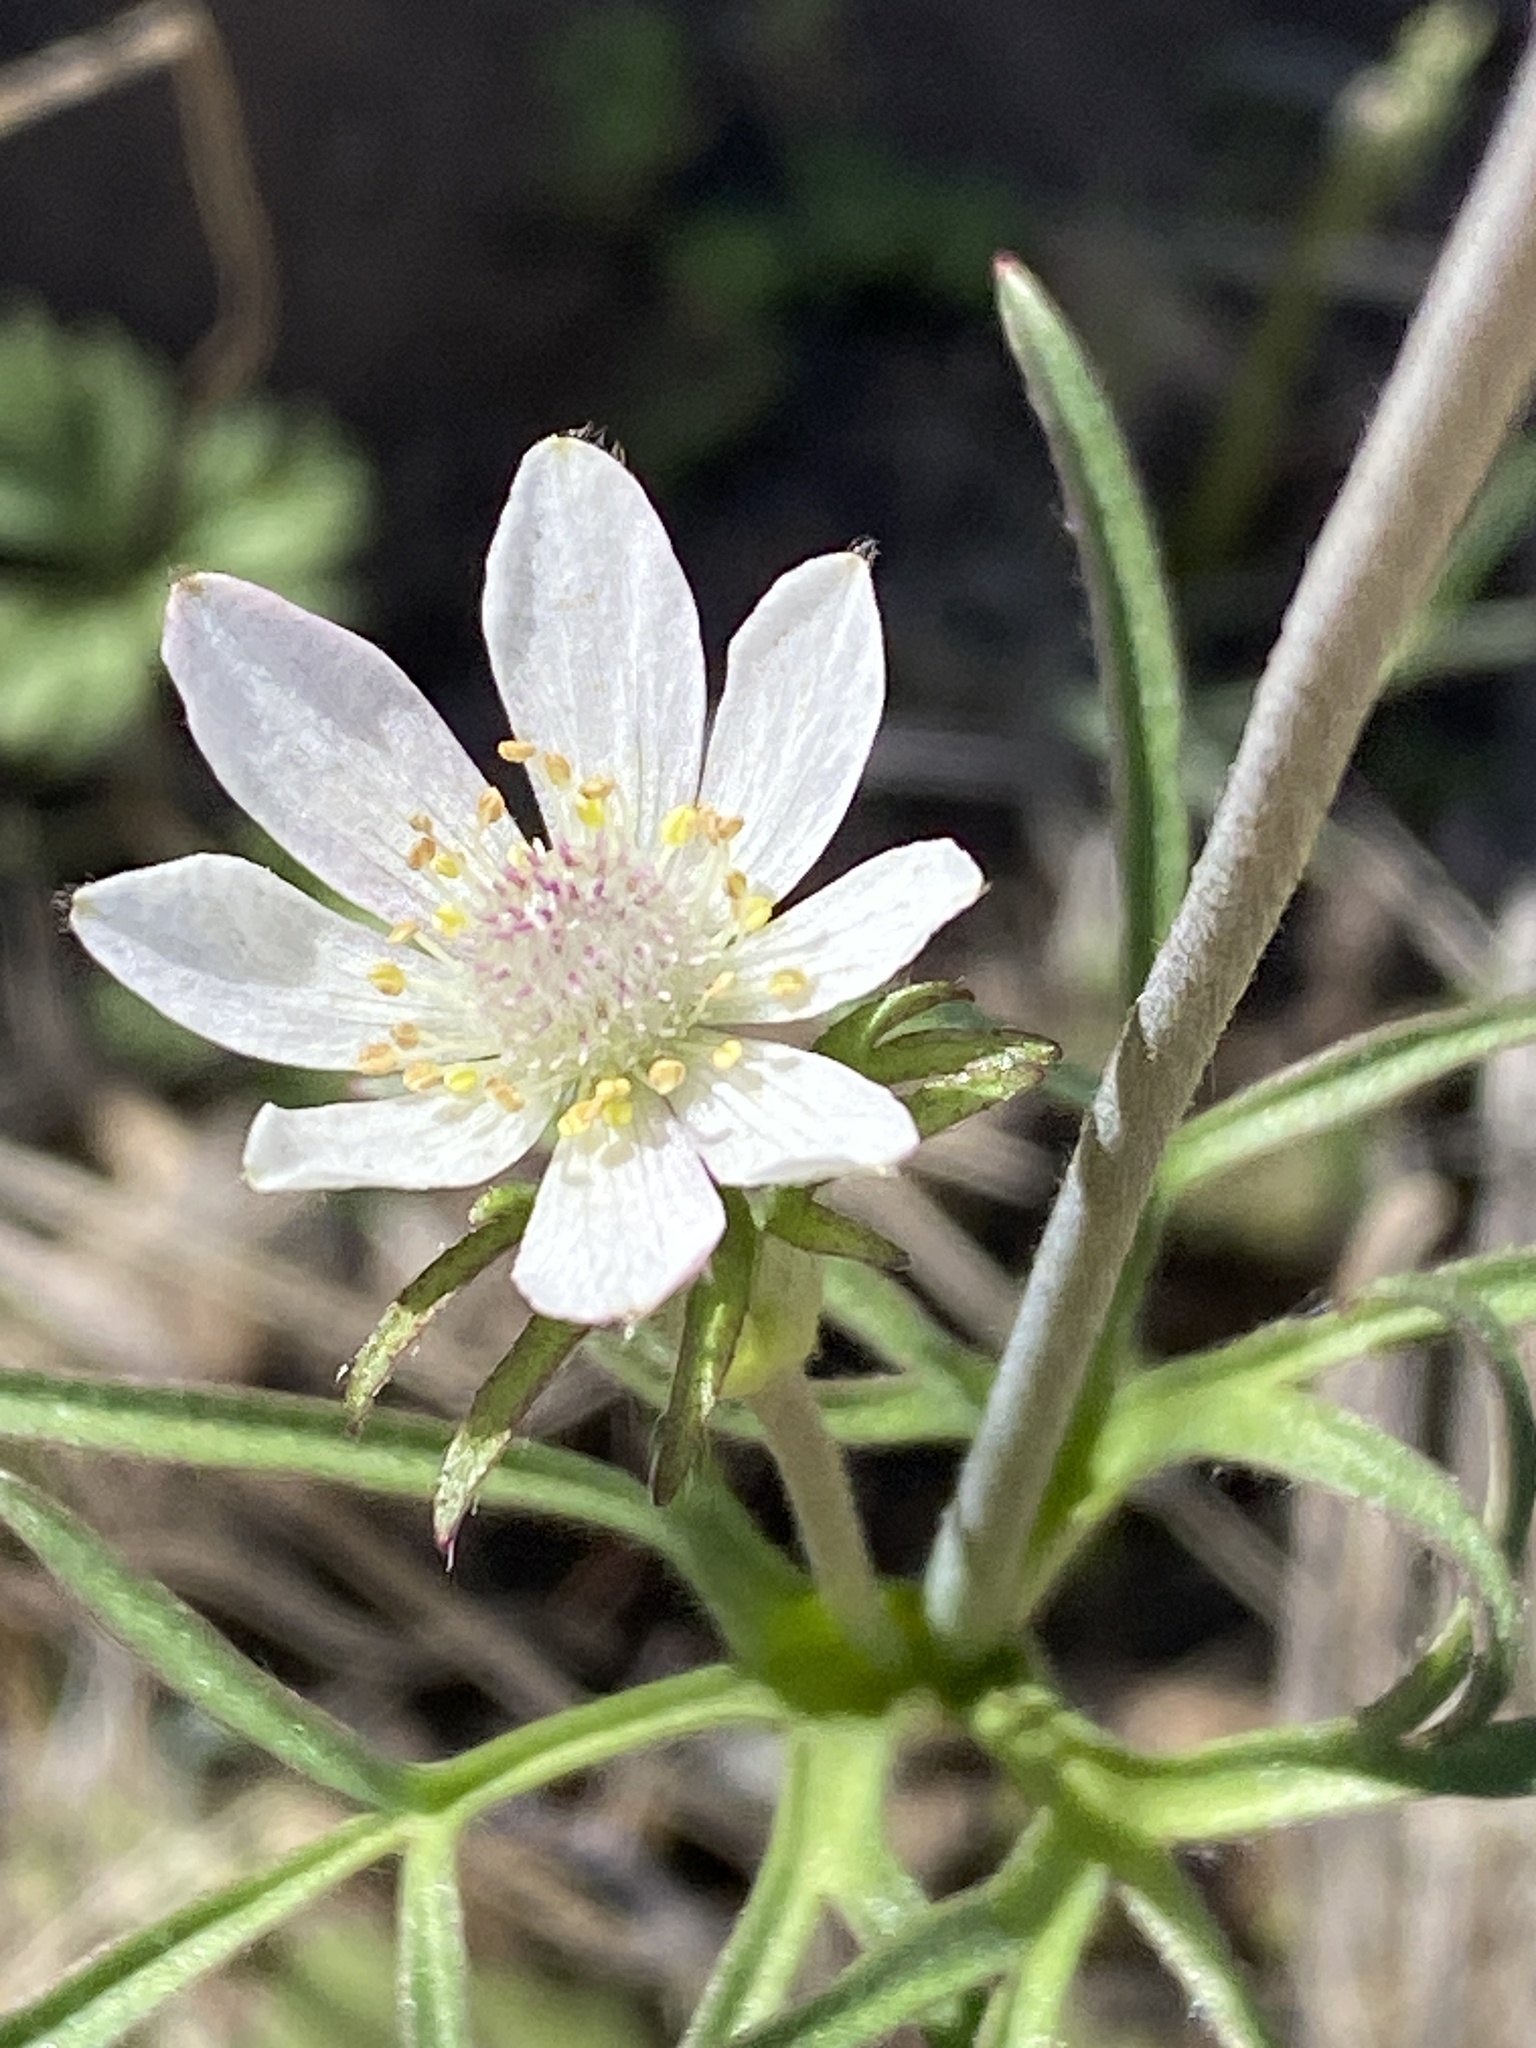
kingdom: Plantae
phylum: Tracheophyta
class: Magnoliopsida
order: Ranunculales
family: Ranunculaceae
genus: Anemone
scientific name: Anemone tuberosa
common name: Desert anemone
